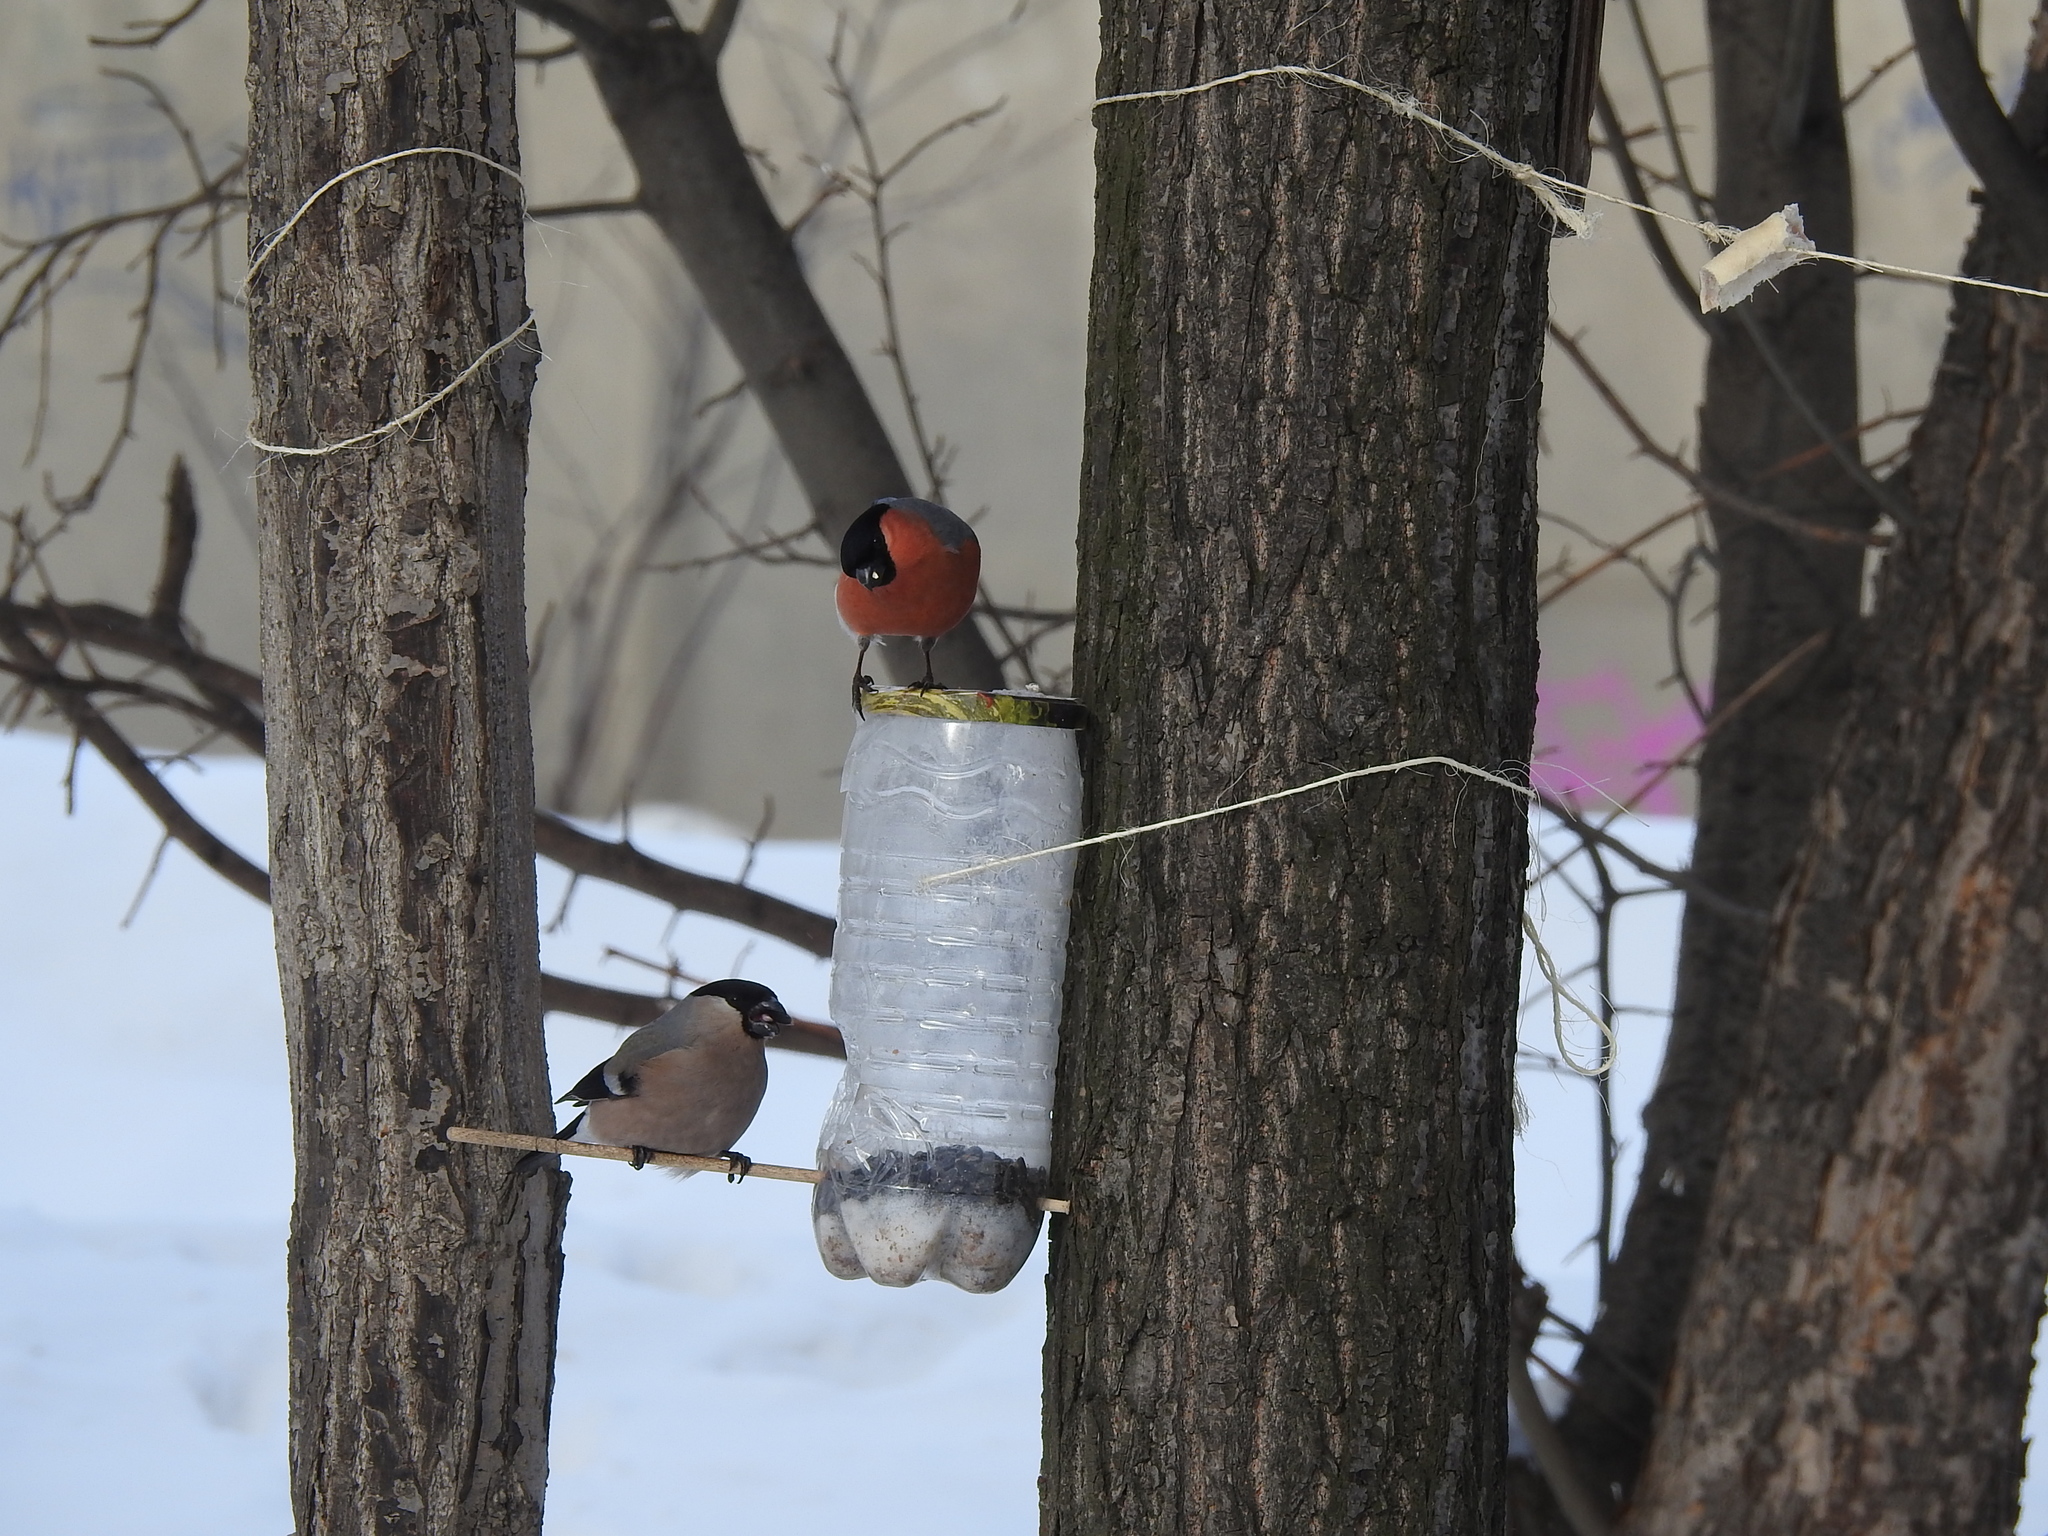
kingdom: Animalia
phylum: Chordata
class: Aves
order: Passeriformes
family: Fringillidae
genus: Pyrrhula
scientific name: Pyrrhula pyrrhula
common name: Eurasian bullfinch
